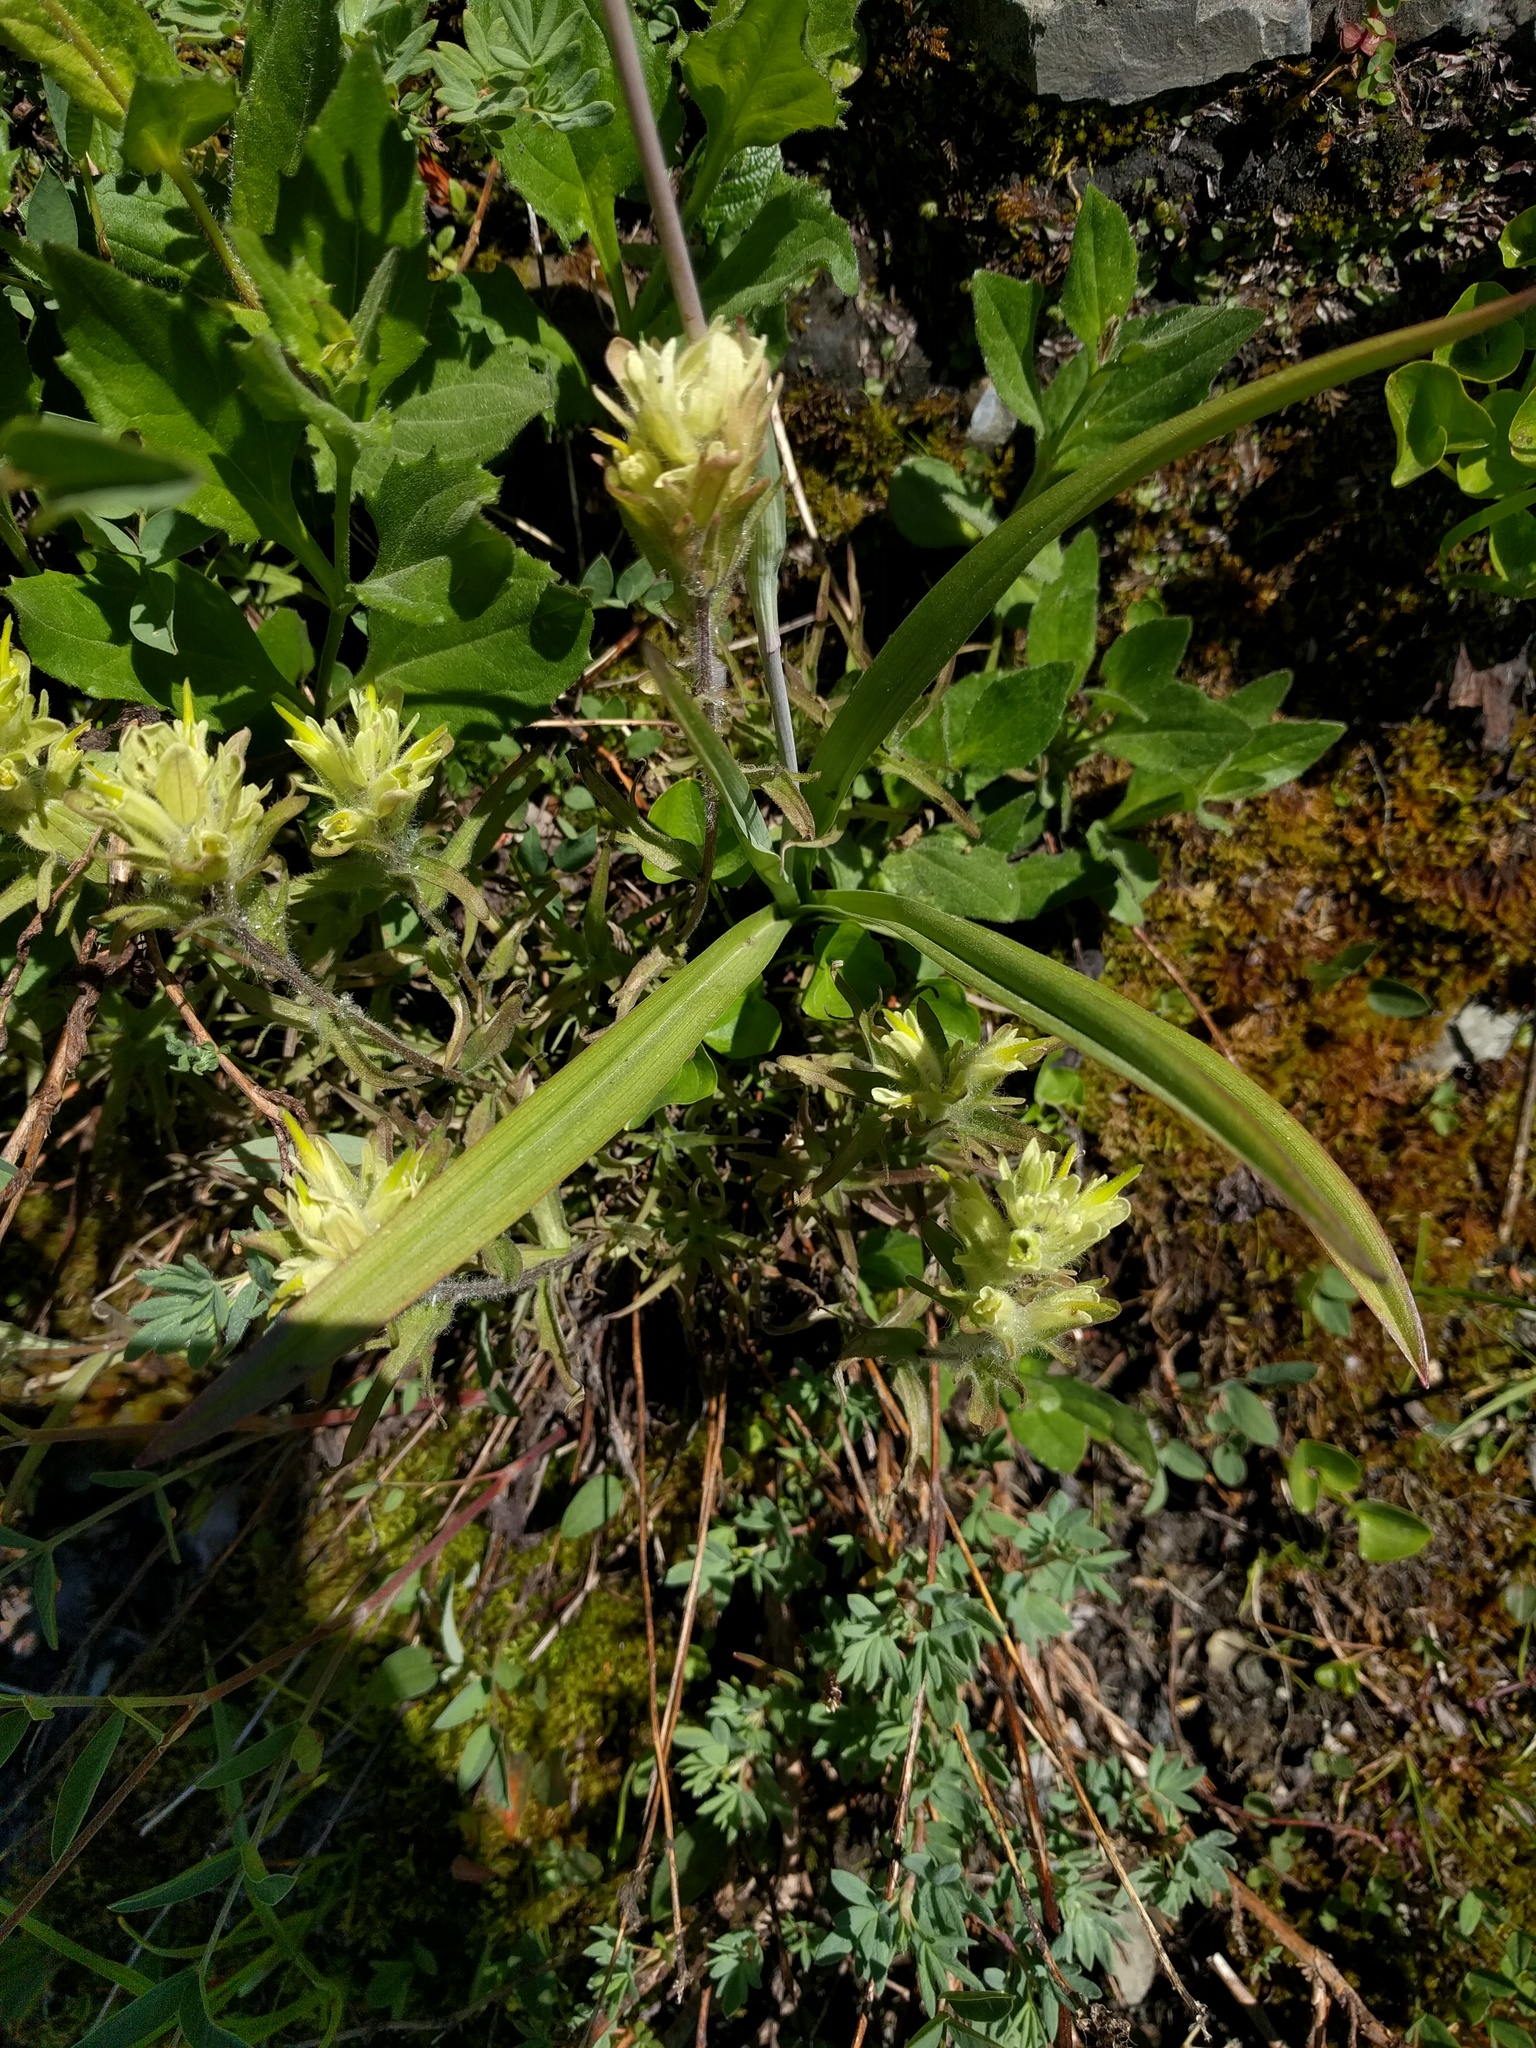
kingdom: Plantae
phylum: Tracheophyta
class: Magnoliopsida
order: Lamiales
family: Orobanchaceae
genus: Castilleja
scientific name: Castilleja occidentalis
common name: Western paintbrush
